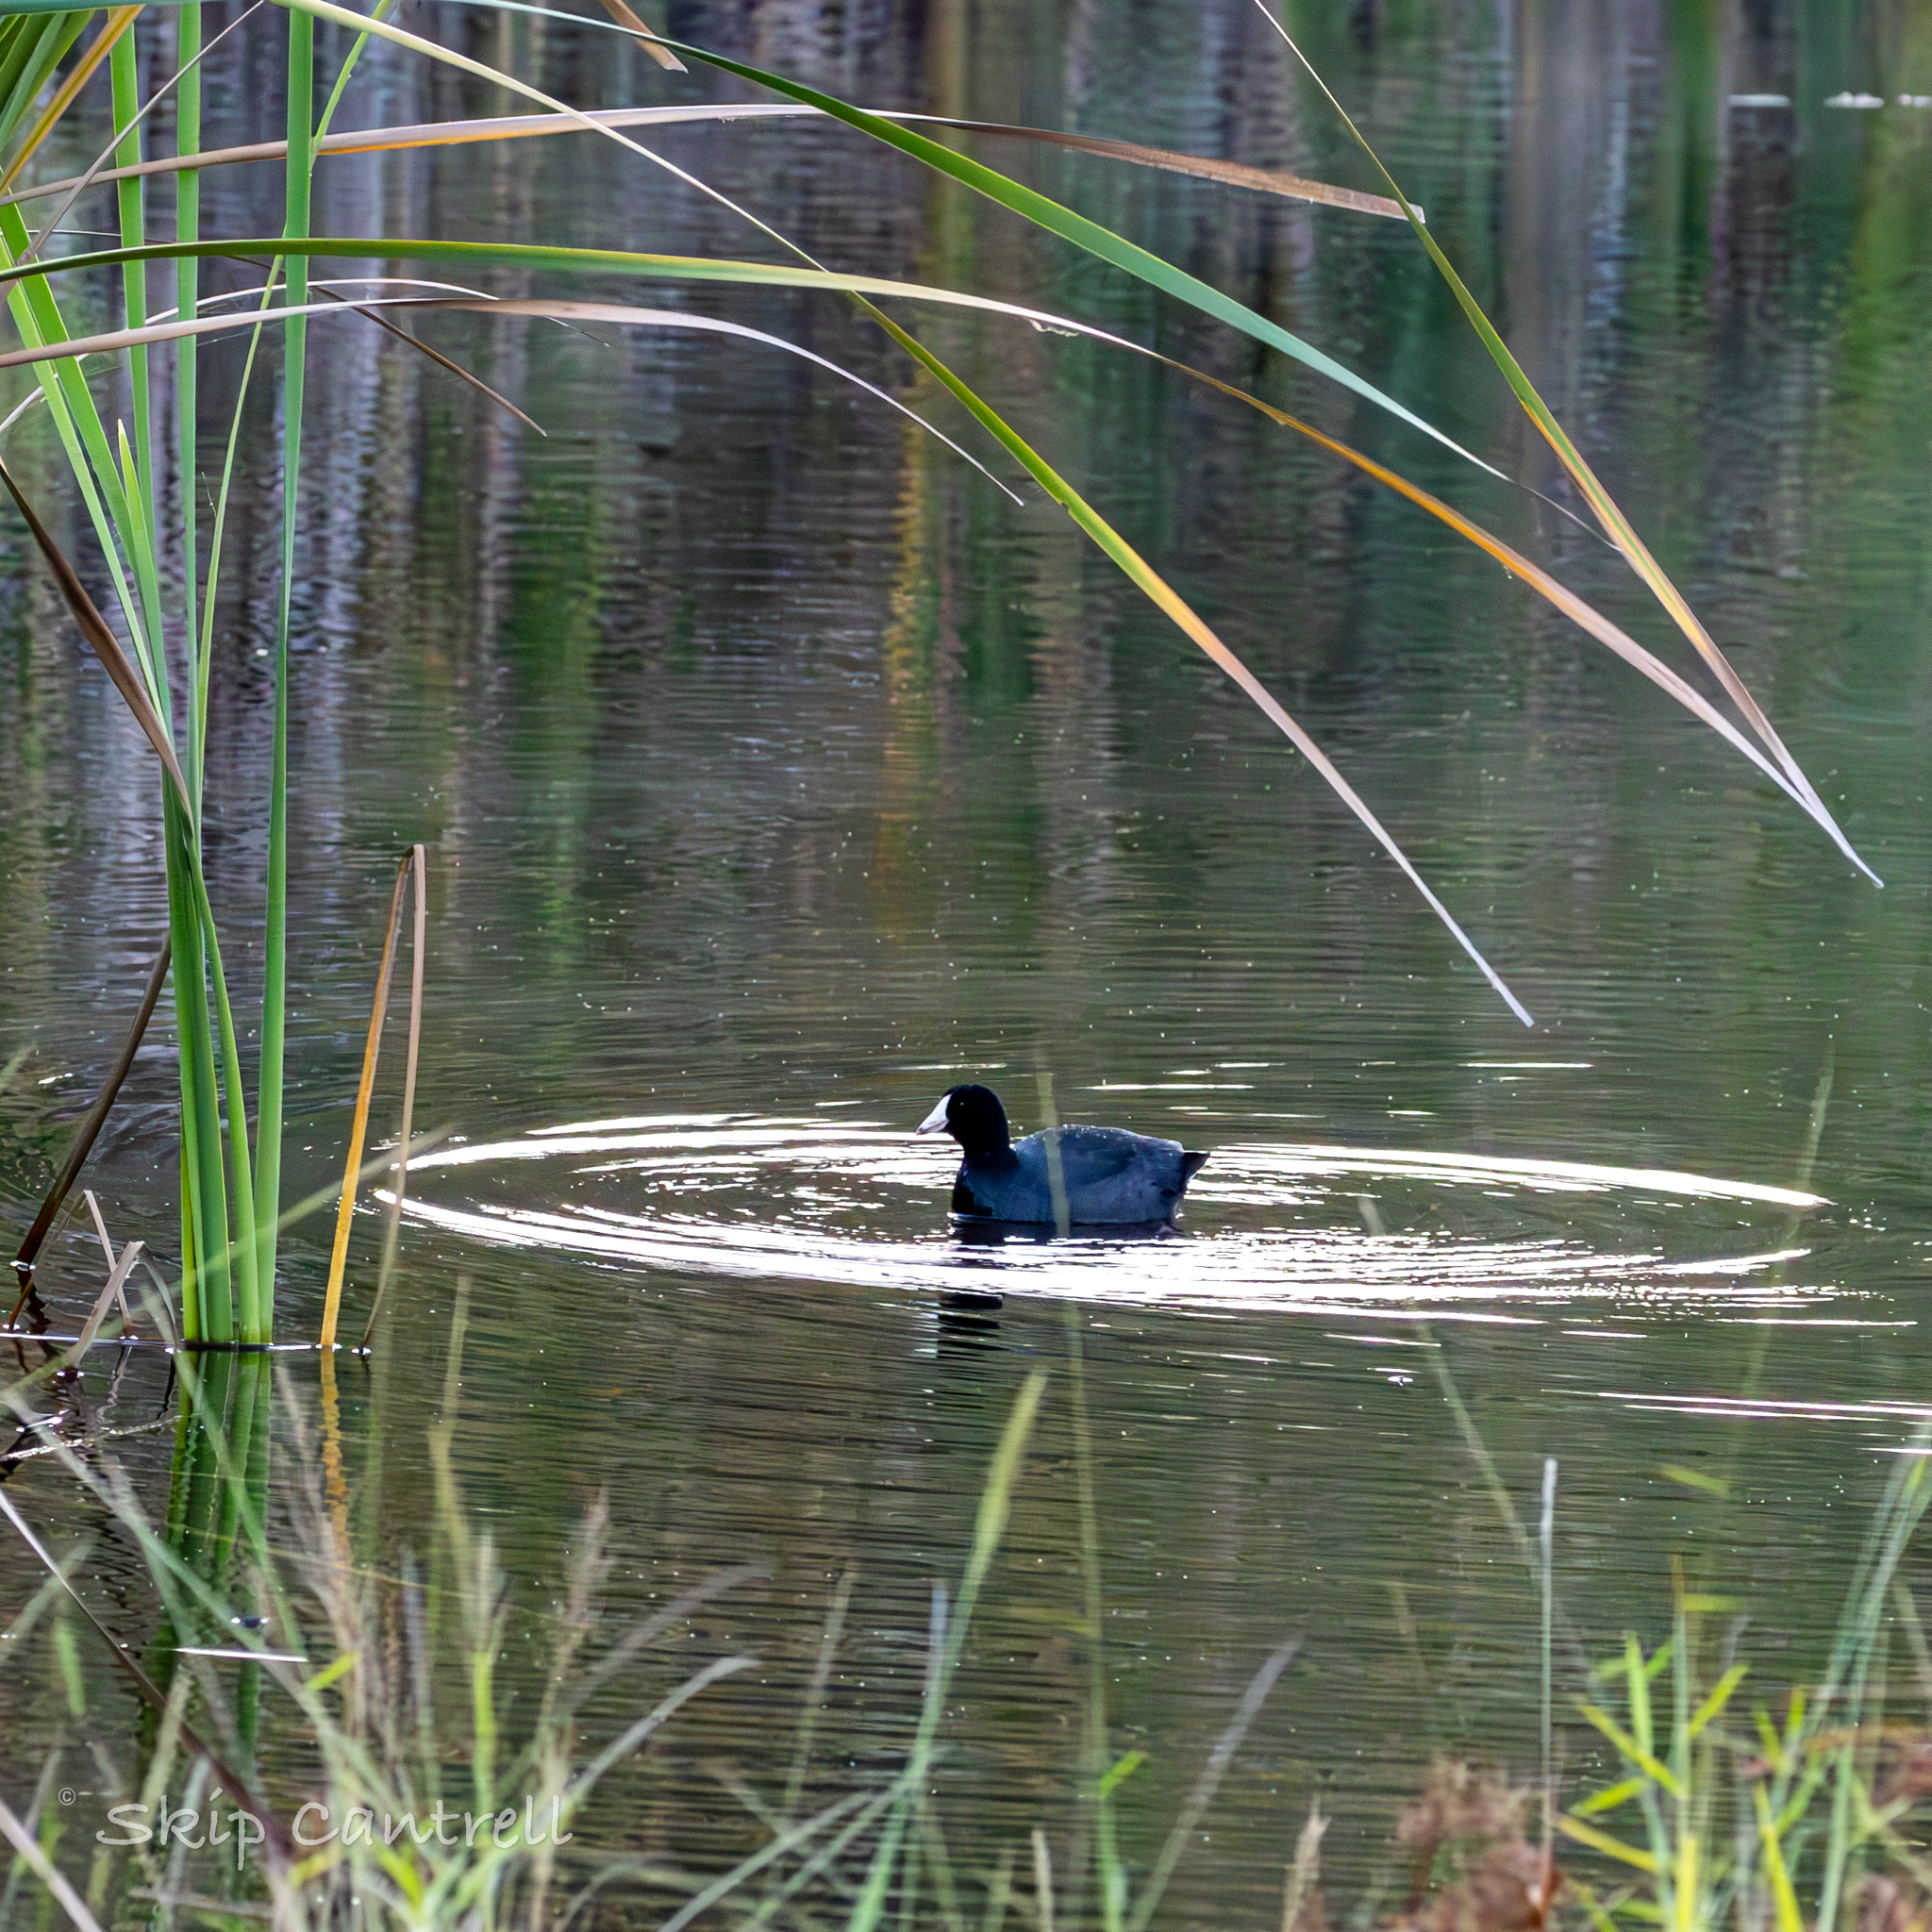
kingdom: Animalia
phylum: Chordata
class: Aves
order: Gruiformes
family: Rallidae
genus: Fulica
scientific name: Fulica americana
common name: American coot
